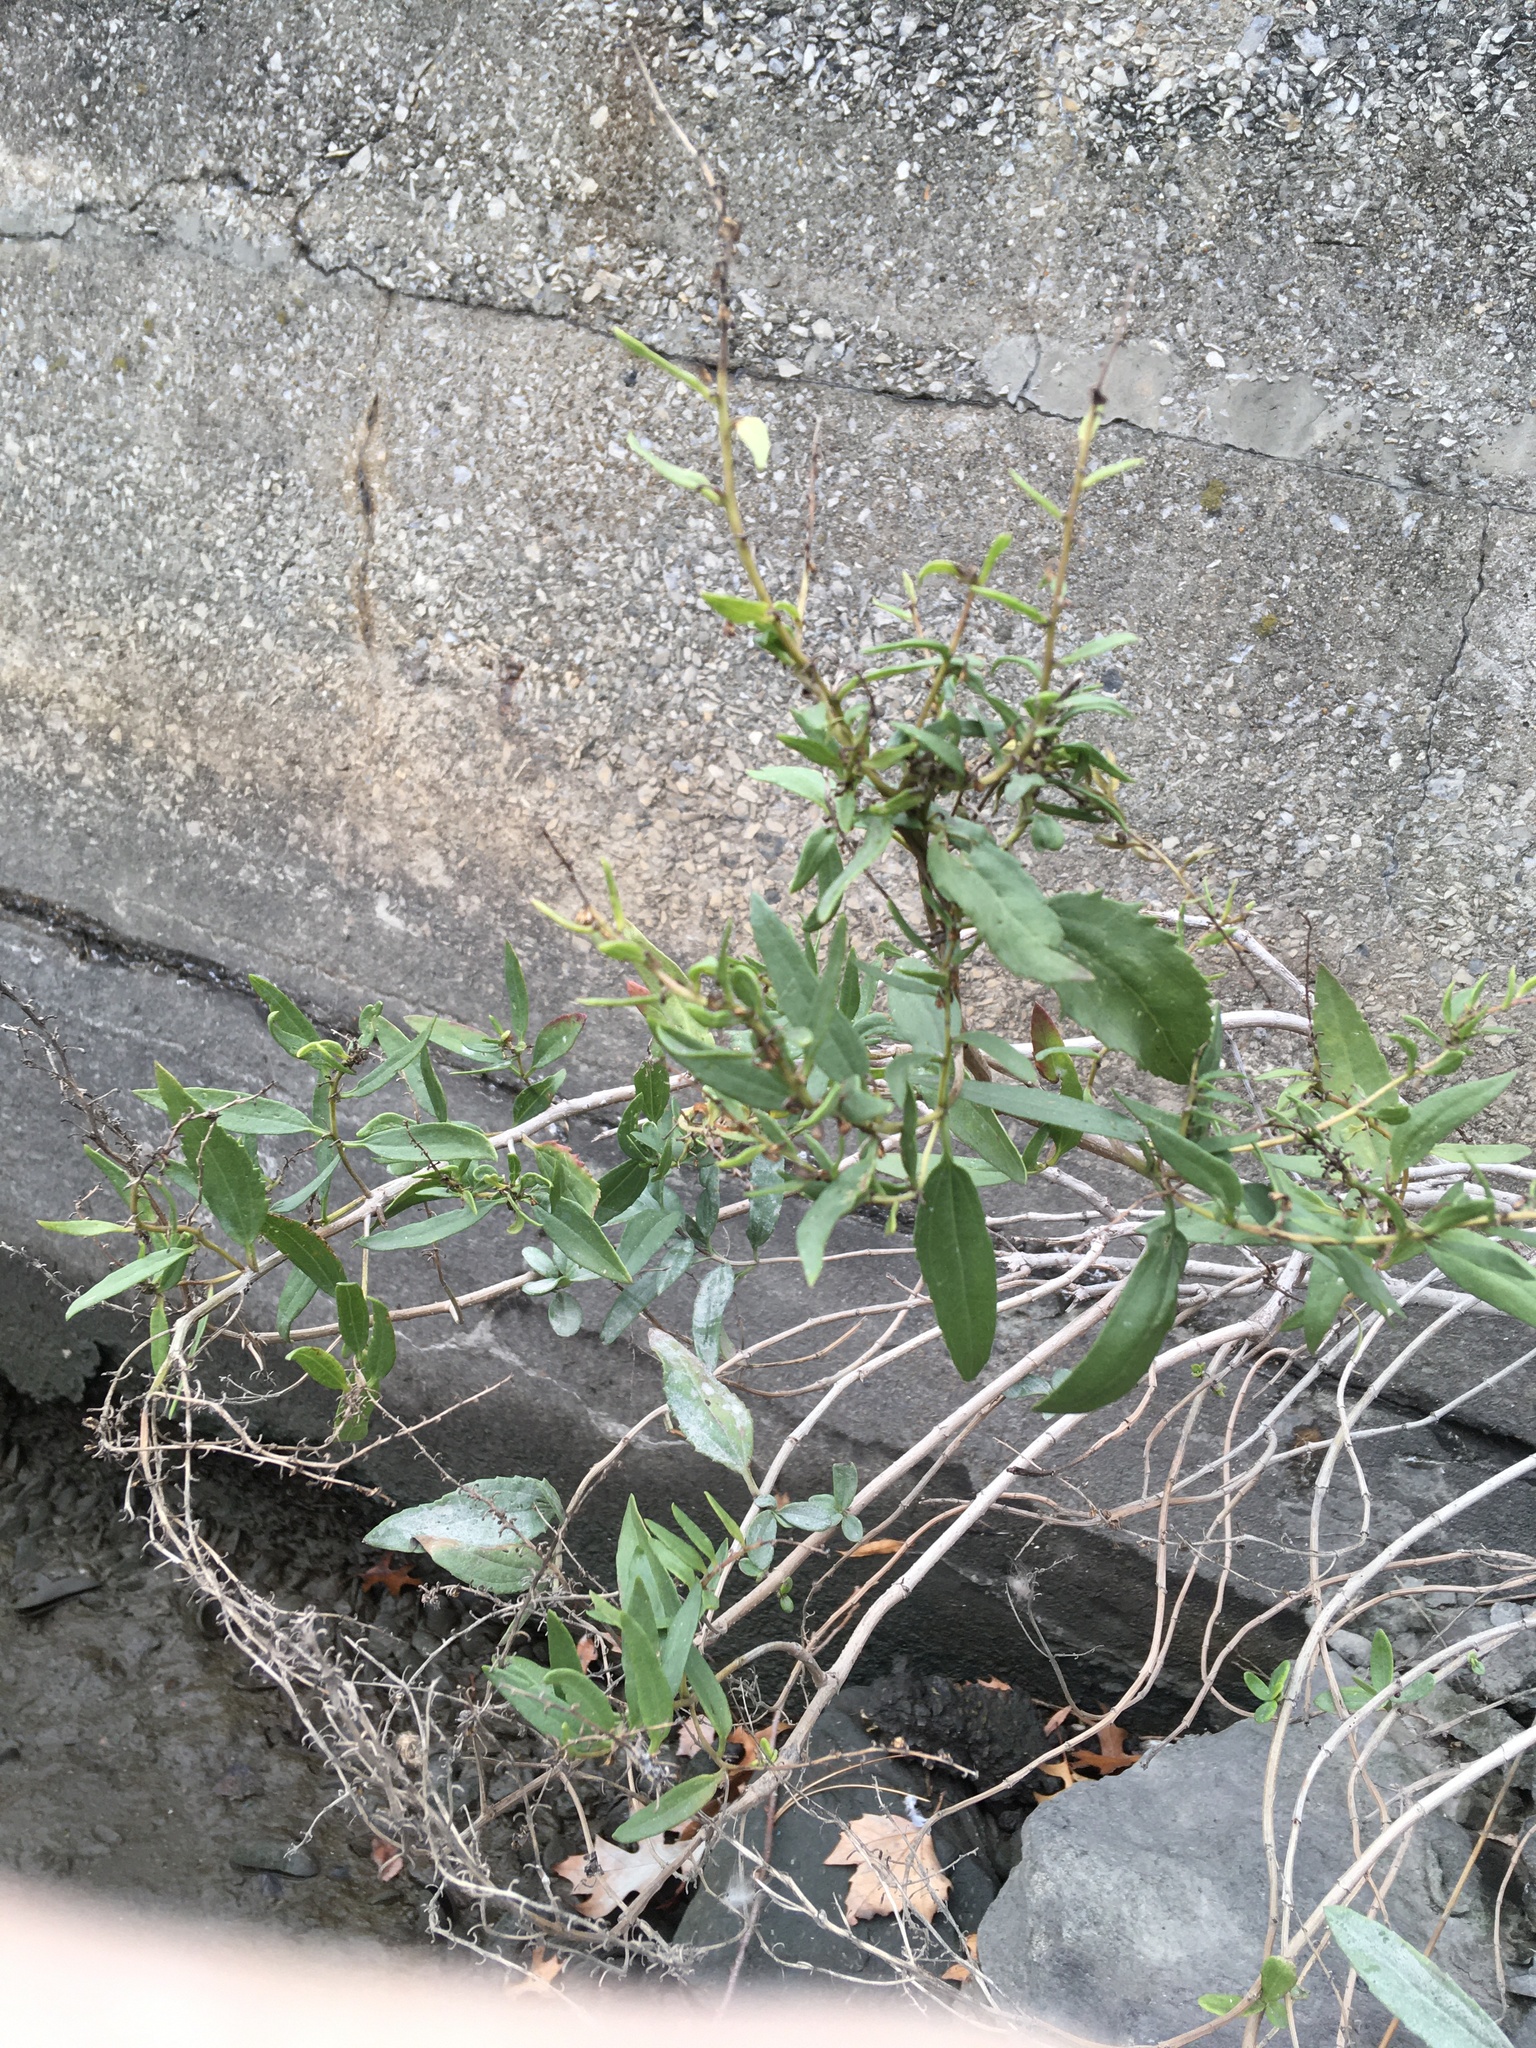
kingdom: Plantae
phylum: Tracheophyta
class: Magnoliopsida
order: Asterales
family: Asteraceae
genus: Iva
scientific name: Iva frutescens
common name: Big-leaved marsh-elder
